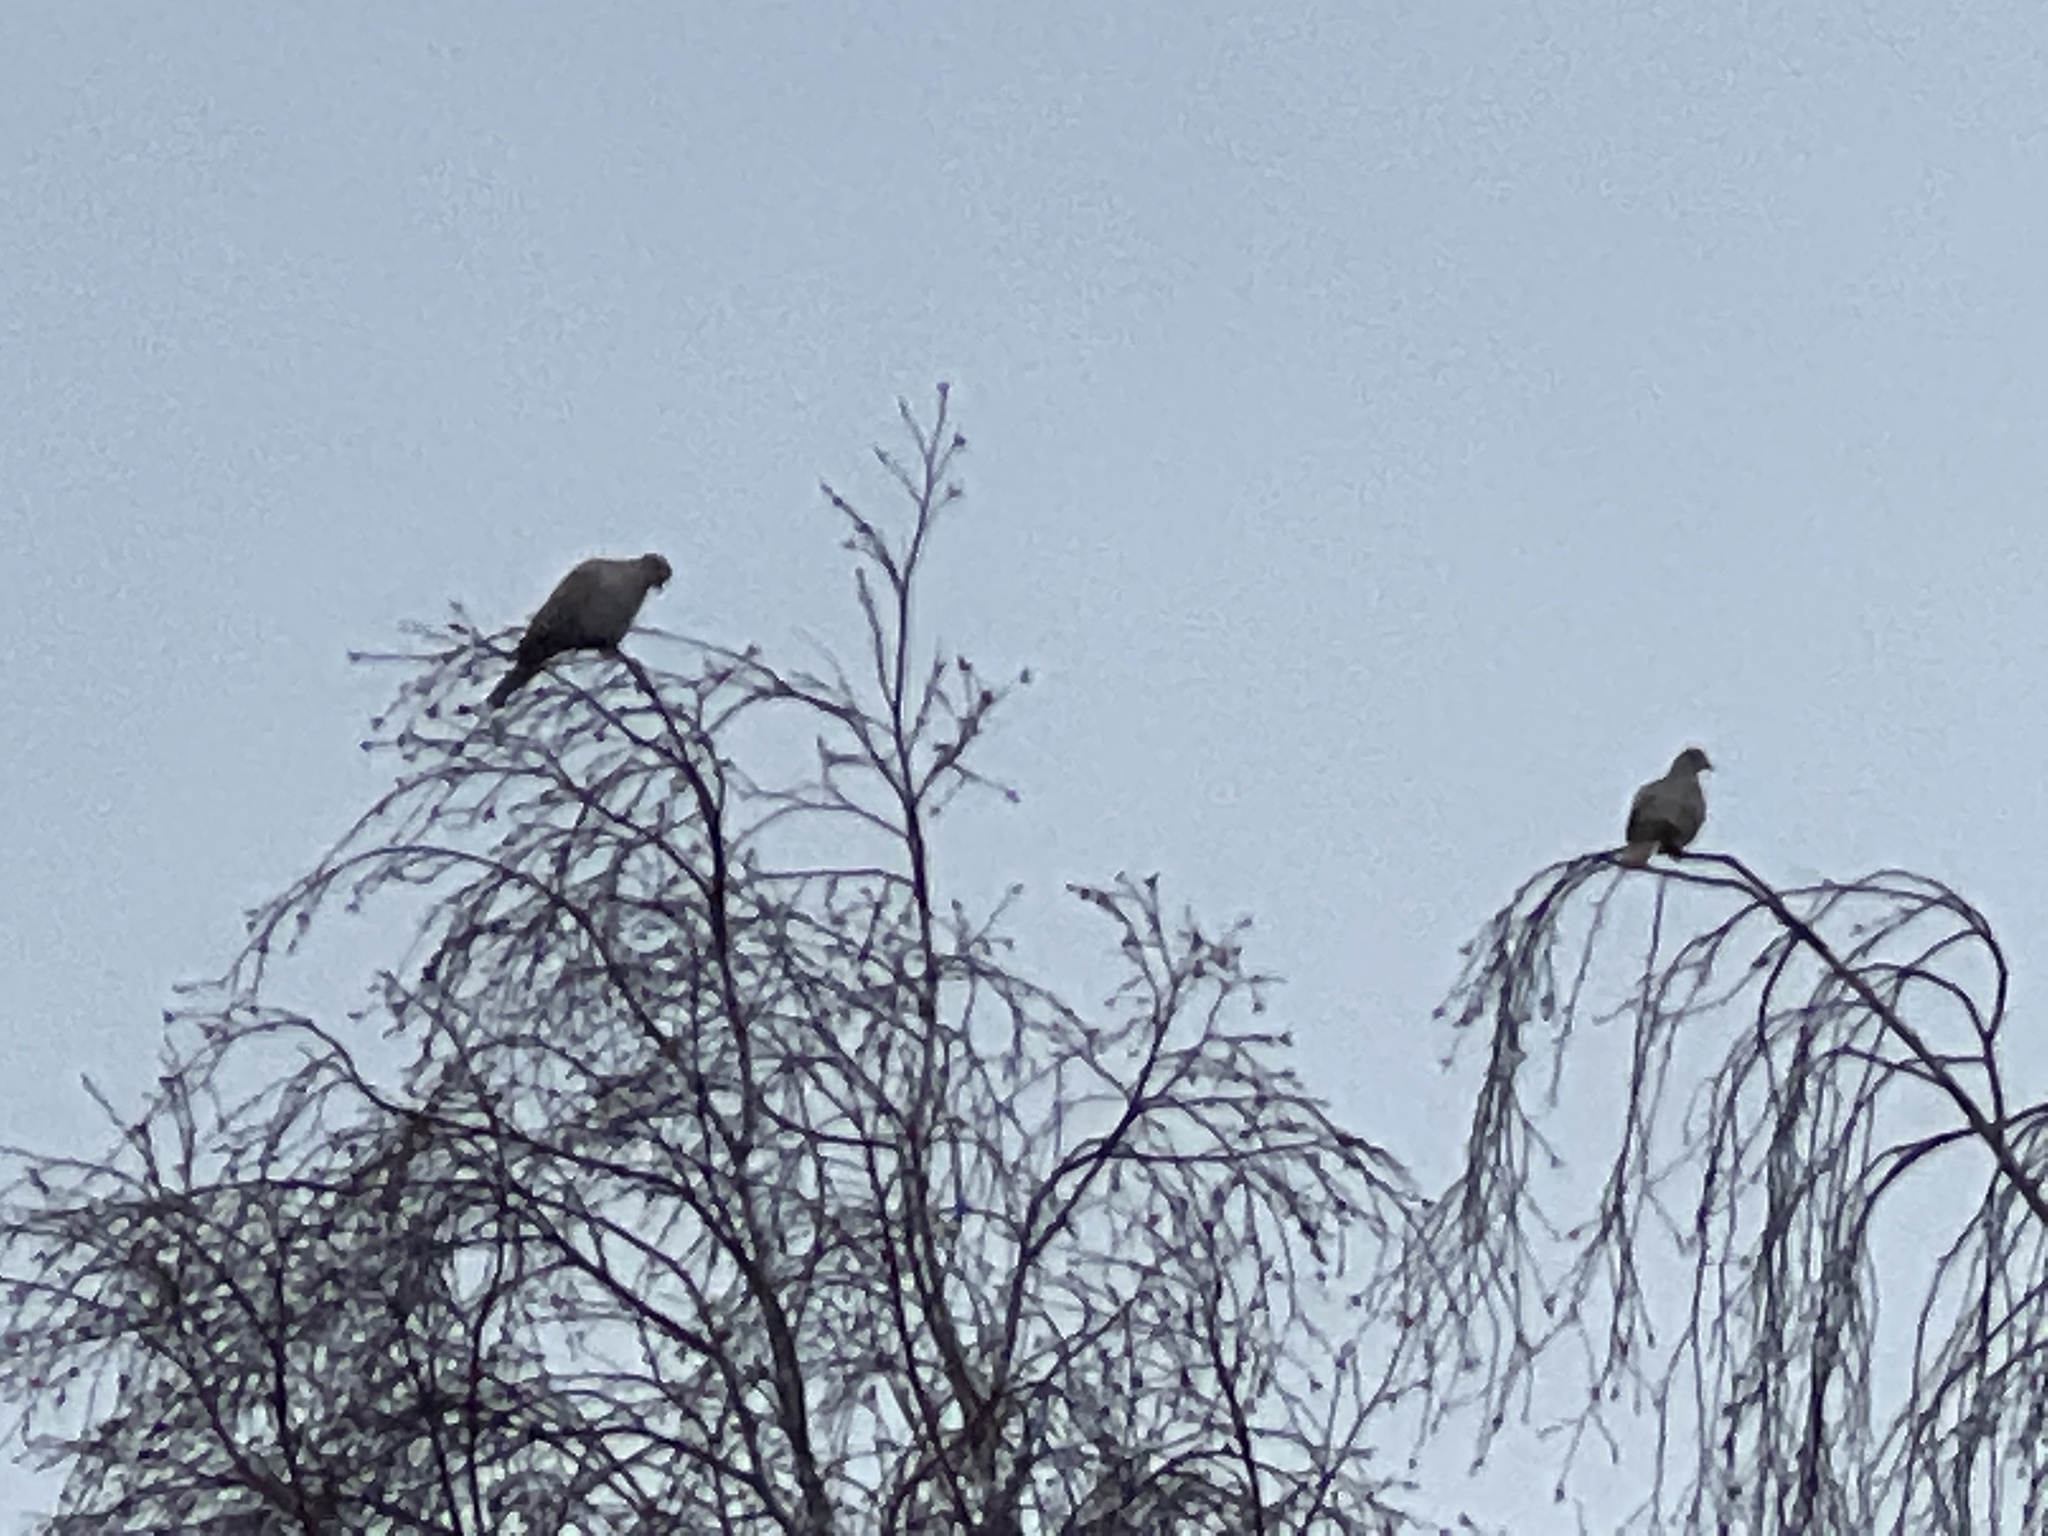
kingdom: Animalia
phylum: Chordata
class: Aves
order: Columbiformes
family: Columbidae
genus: Streptopelia
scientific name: Streptopelia decaocto
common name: Eurasian collared dove
